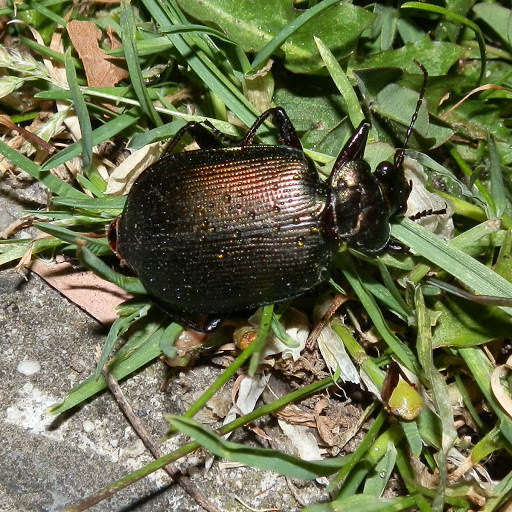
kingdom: Animalia
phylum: Arthropoda
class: Insecta
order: Coleoptera
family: Carabidae
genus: Calosoma
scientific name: Calosoma schayeri
